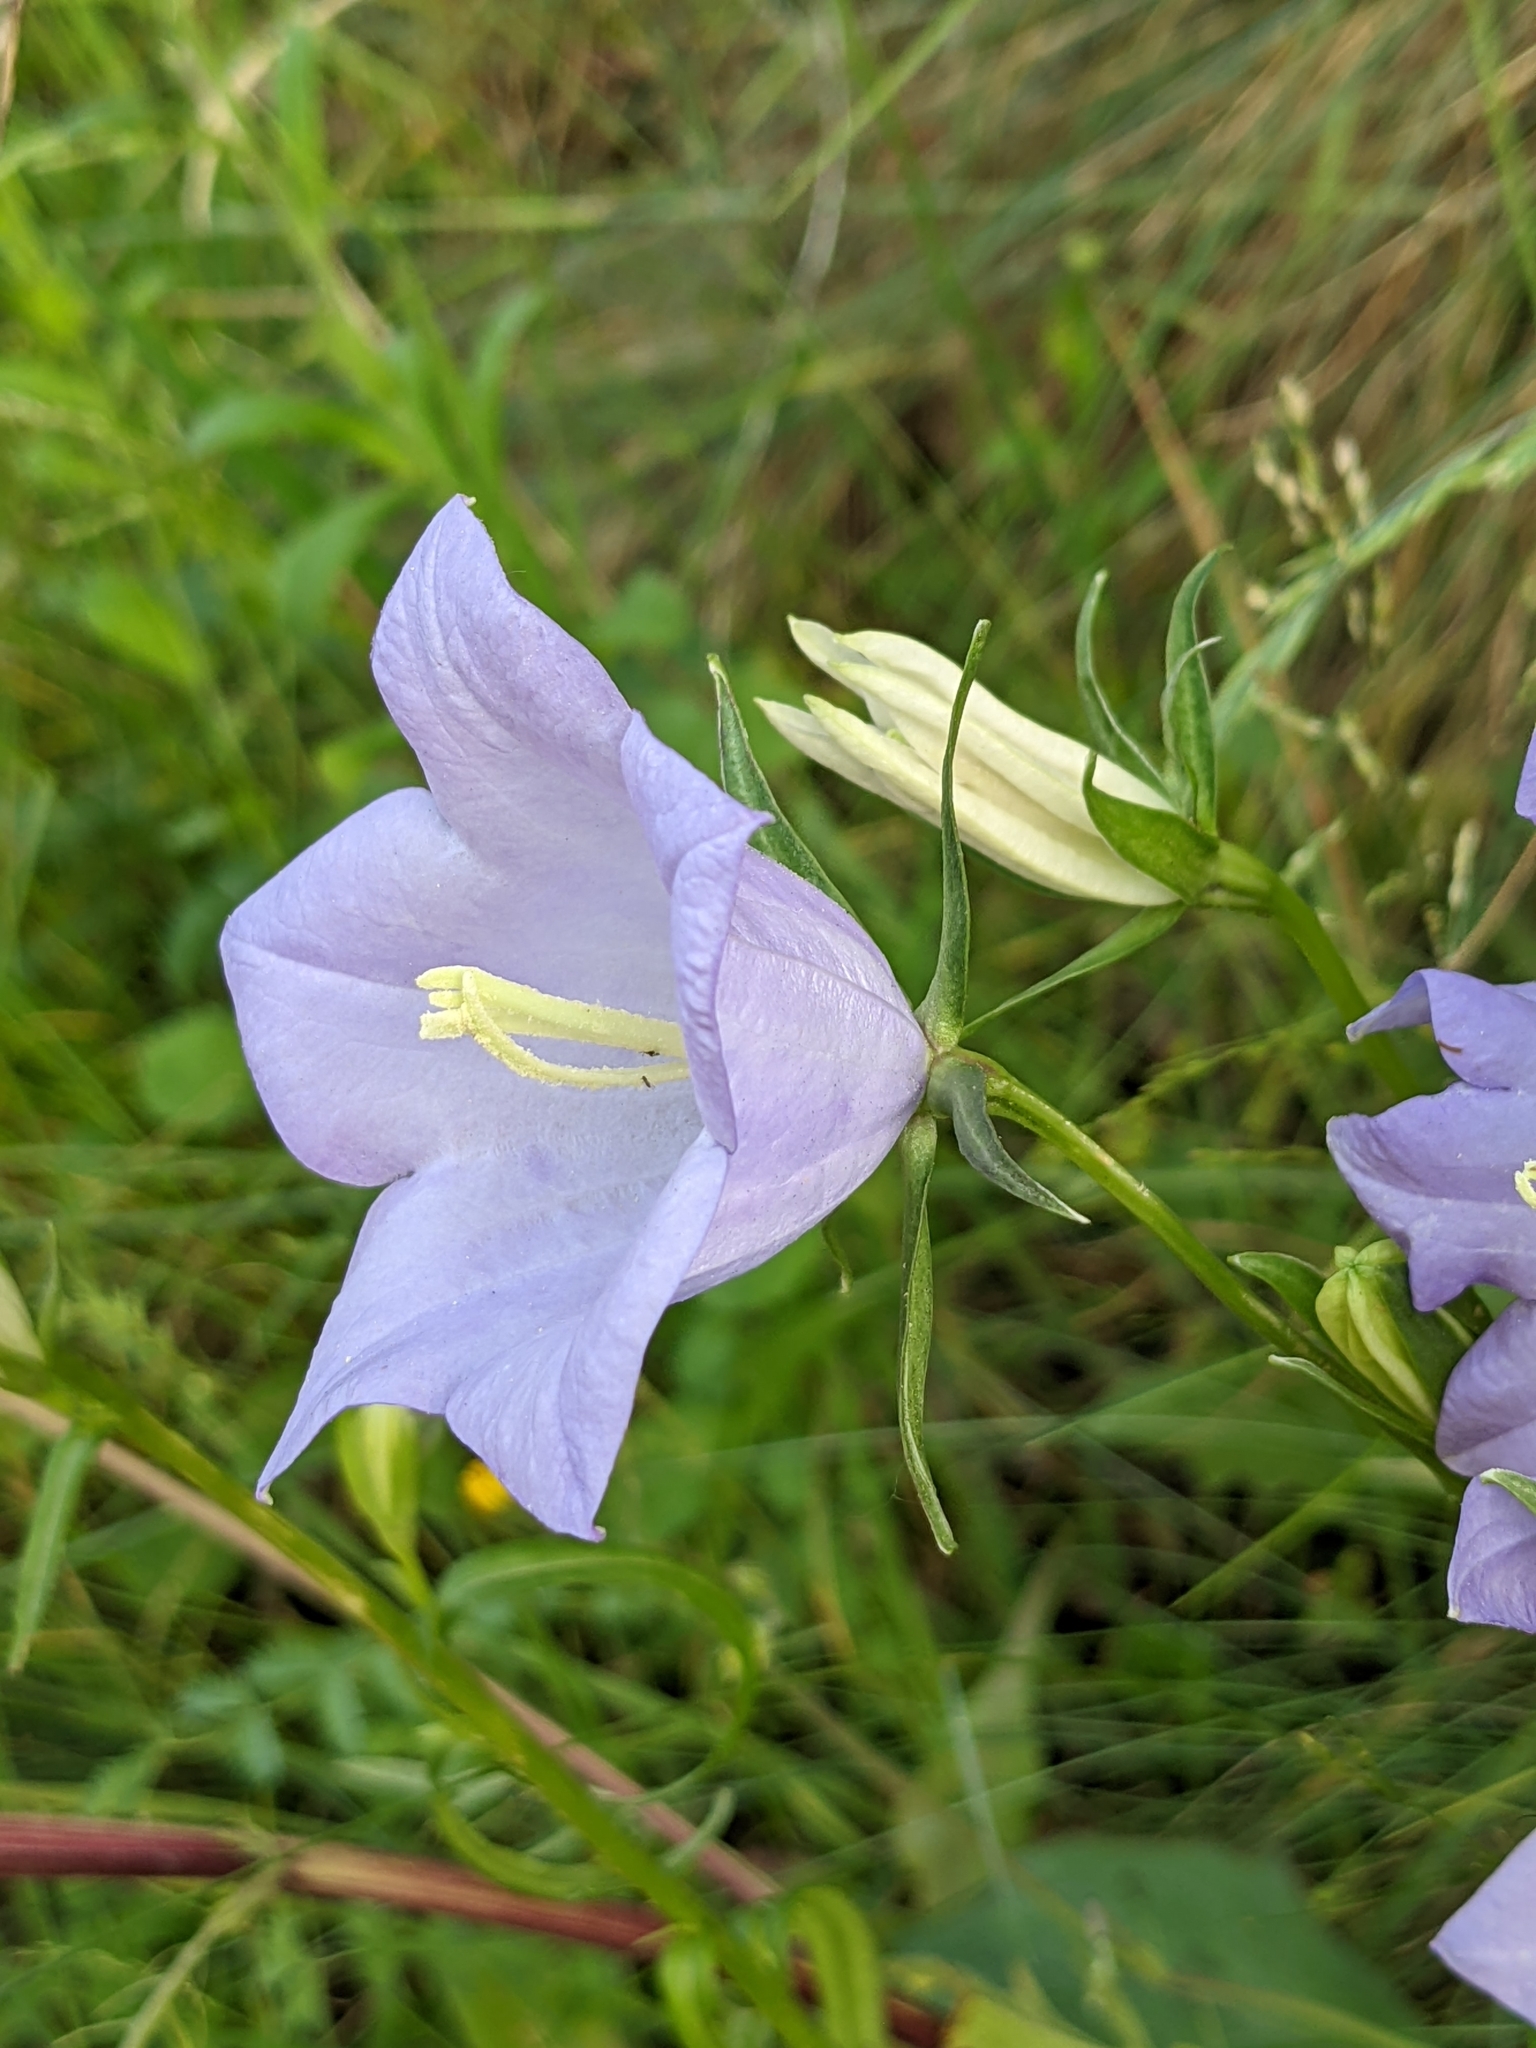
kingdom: Plantae
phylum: Tracheophyta
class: Magnoliopsida
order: Asterales
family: Campanulaceae
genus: Campanula
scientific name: Campanula persicifolia
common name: Peach-leaved bellflower
